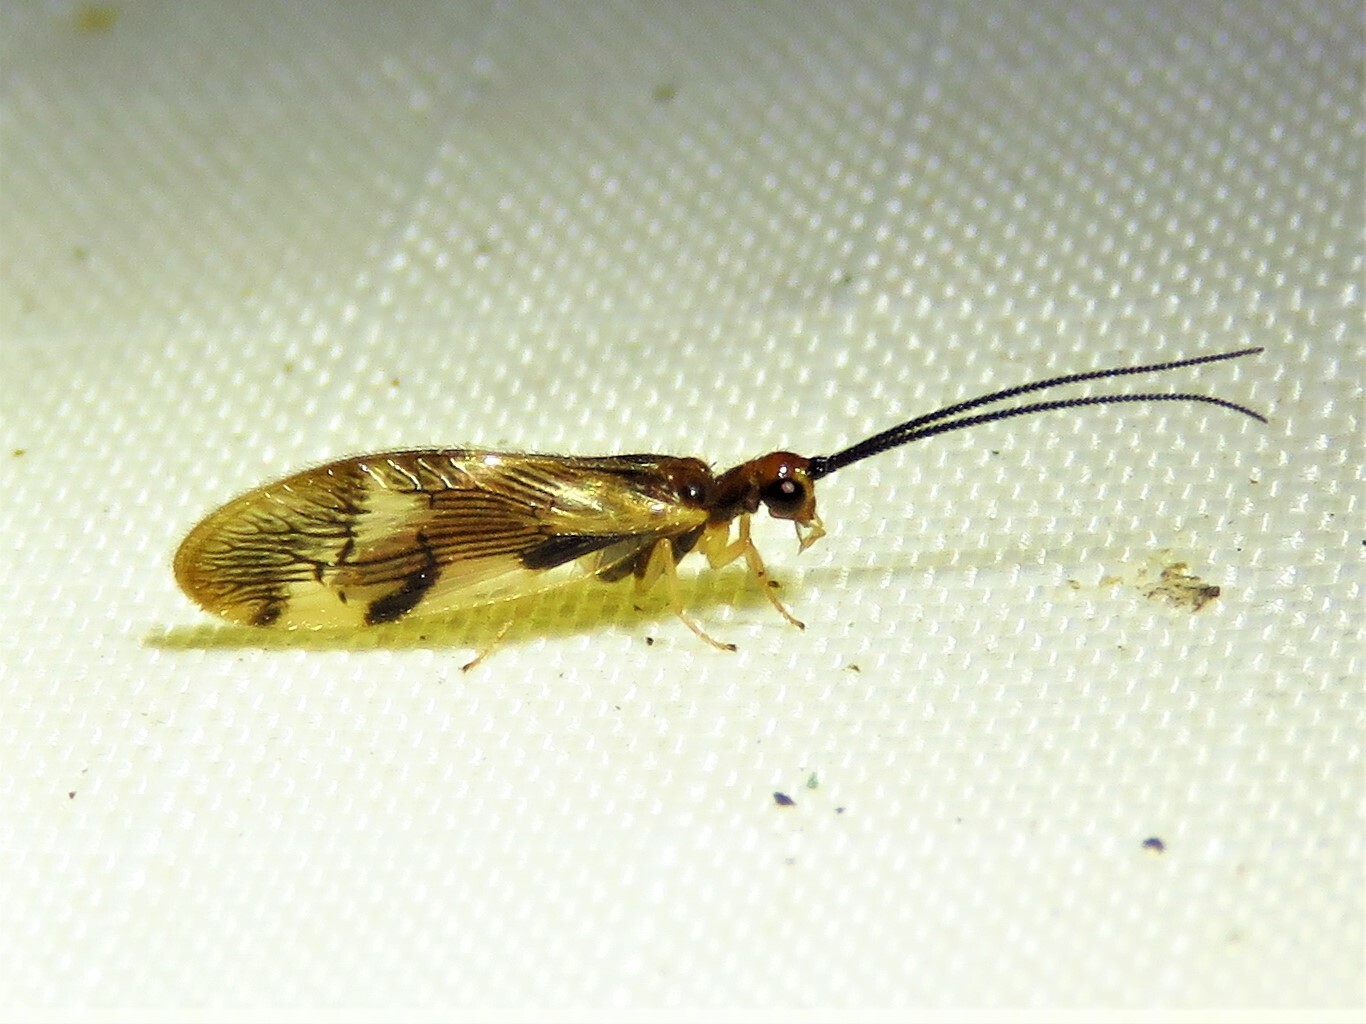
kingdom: Animalia
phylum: Arthropoda
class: Insecta
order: Neuroptera
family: Sisyridae
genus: Climacia
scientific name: Climacia areolaris
